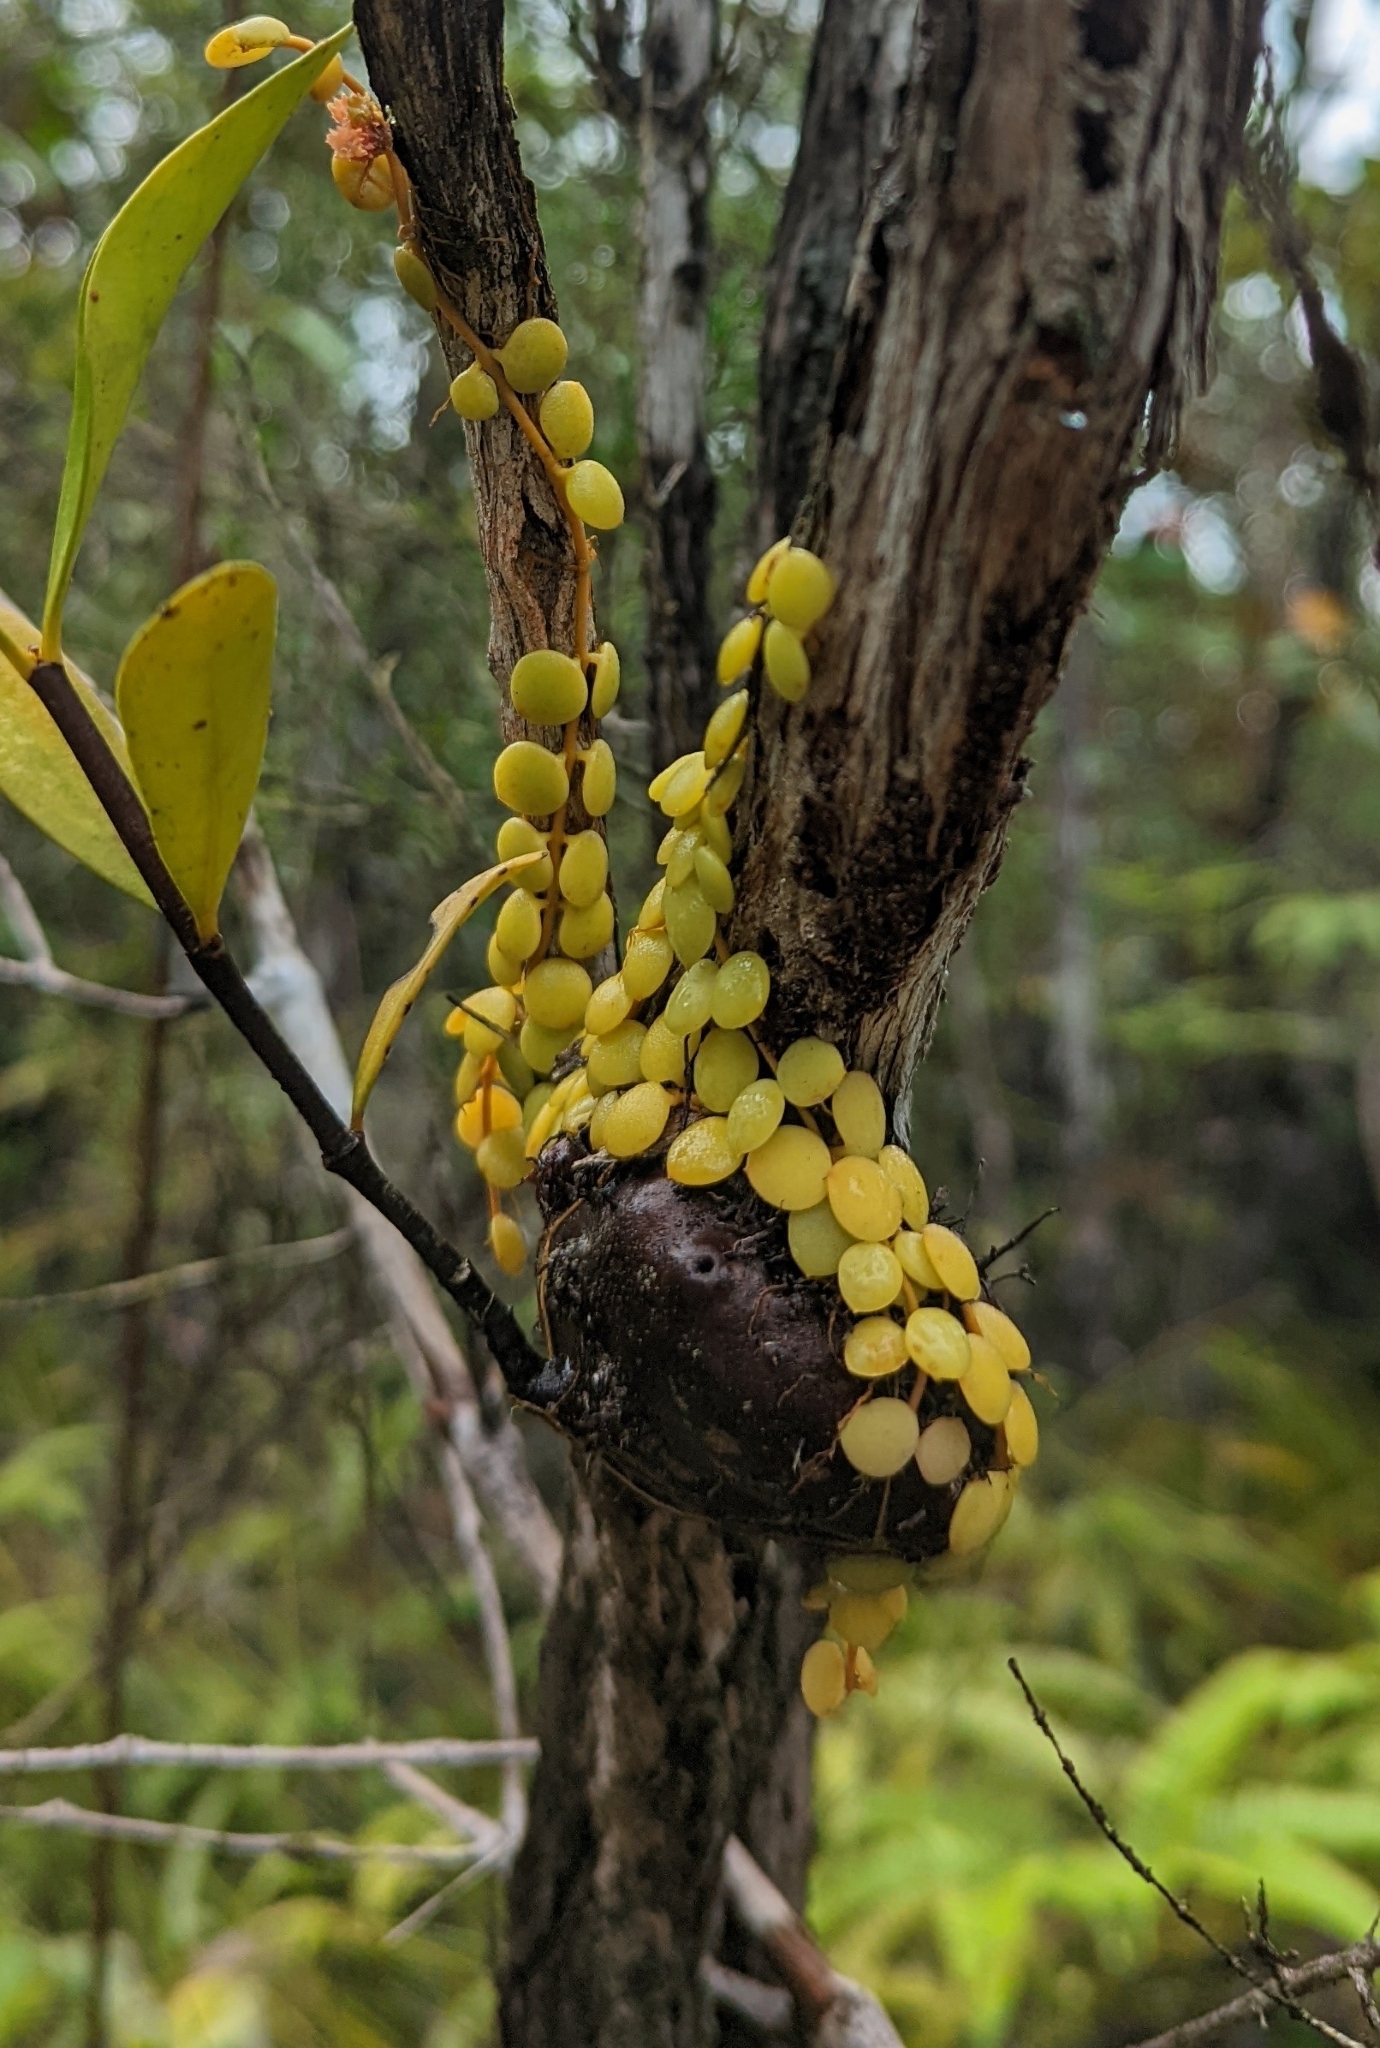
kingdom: Plantae
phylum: Tracheophyta
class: Magnoliopsida
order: Gentianales
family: Apocynaceae
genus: Dischidia
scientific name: Dischidia nummularia
